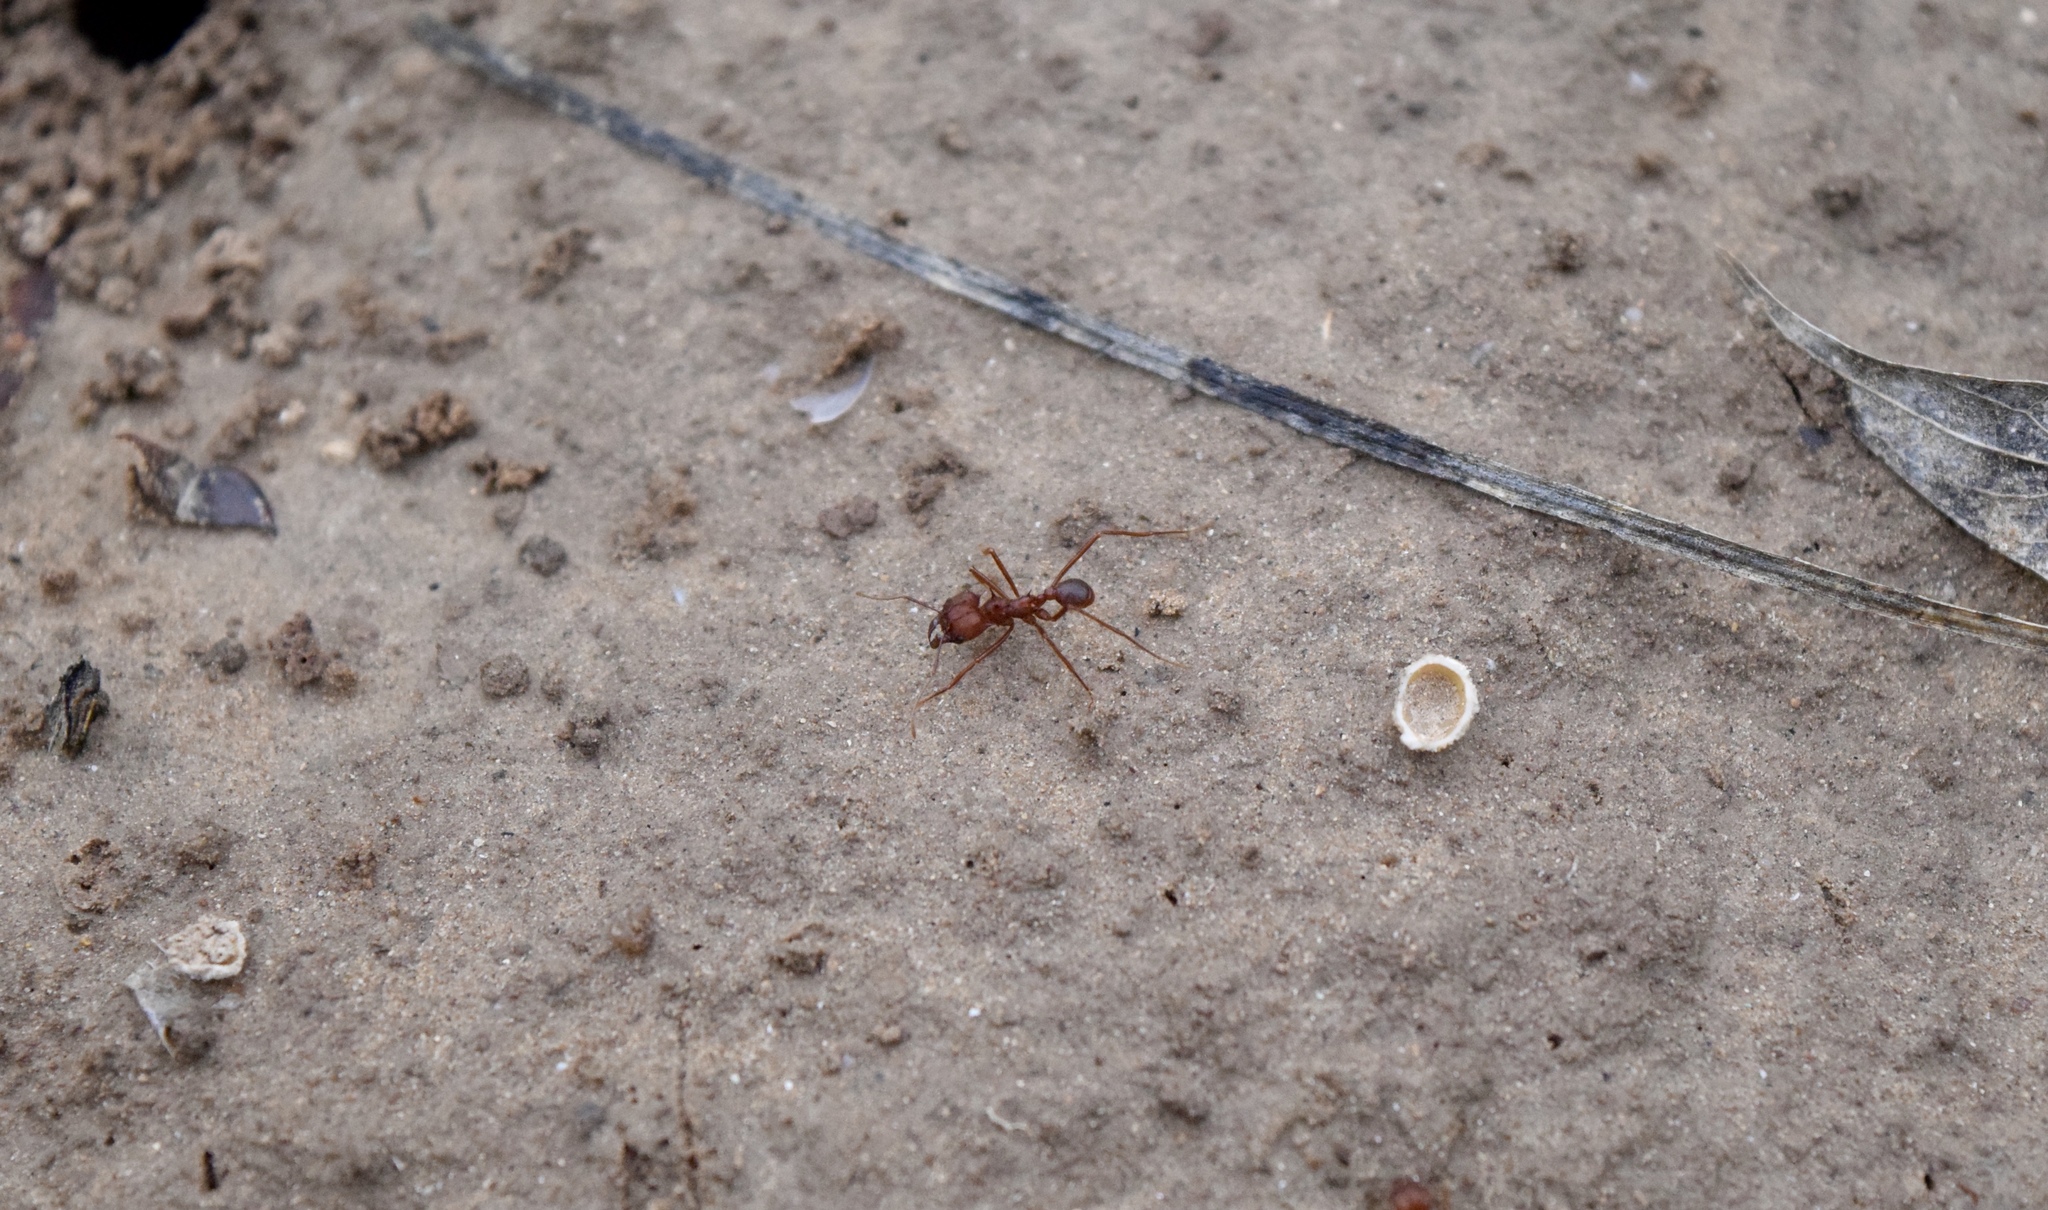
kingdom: Animalia
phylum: Arthropoda
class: Insecta
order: Hymenoptera
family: Formicidae
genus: Atta
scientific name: Atta texana
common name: Texas leafcutting ant
